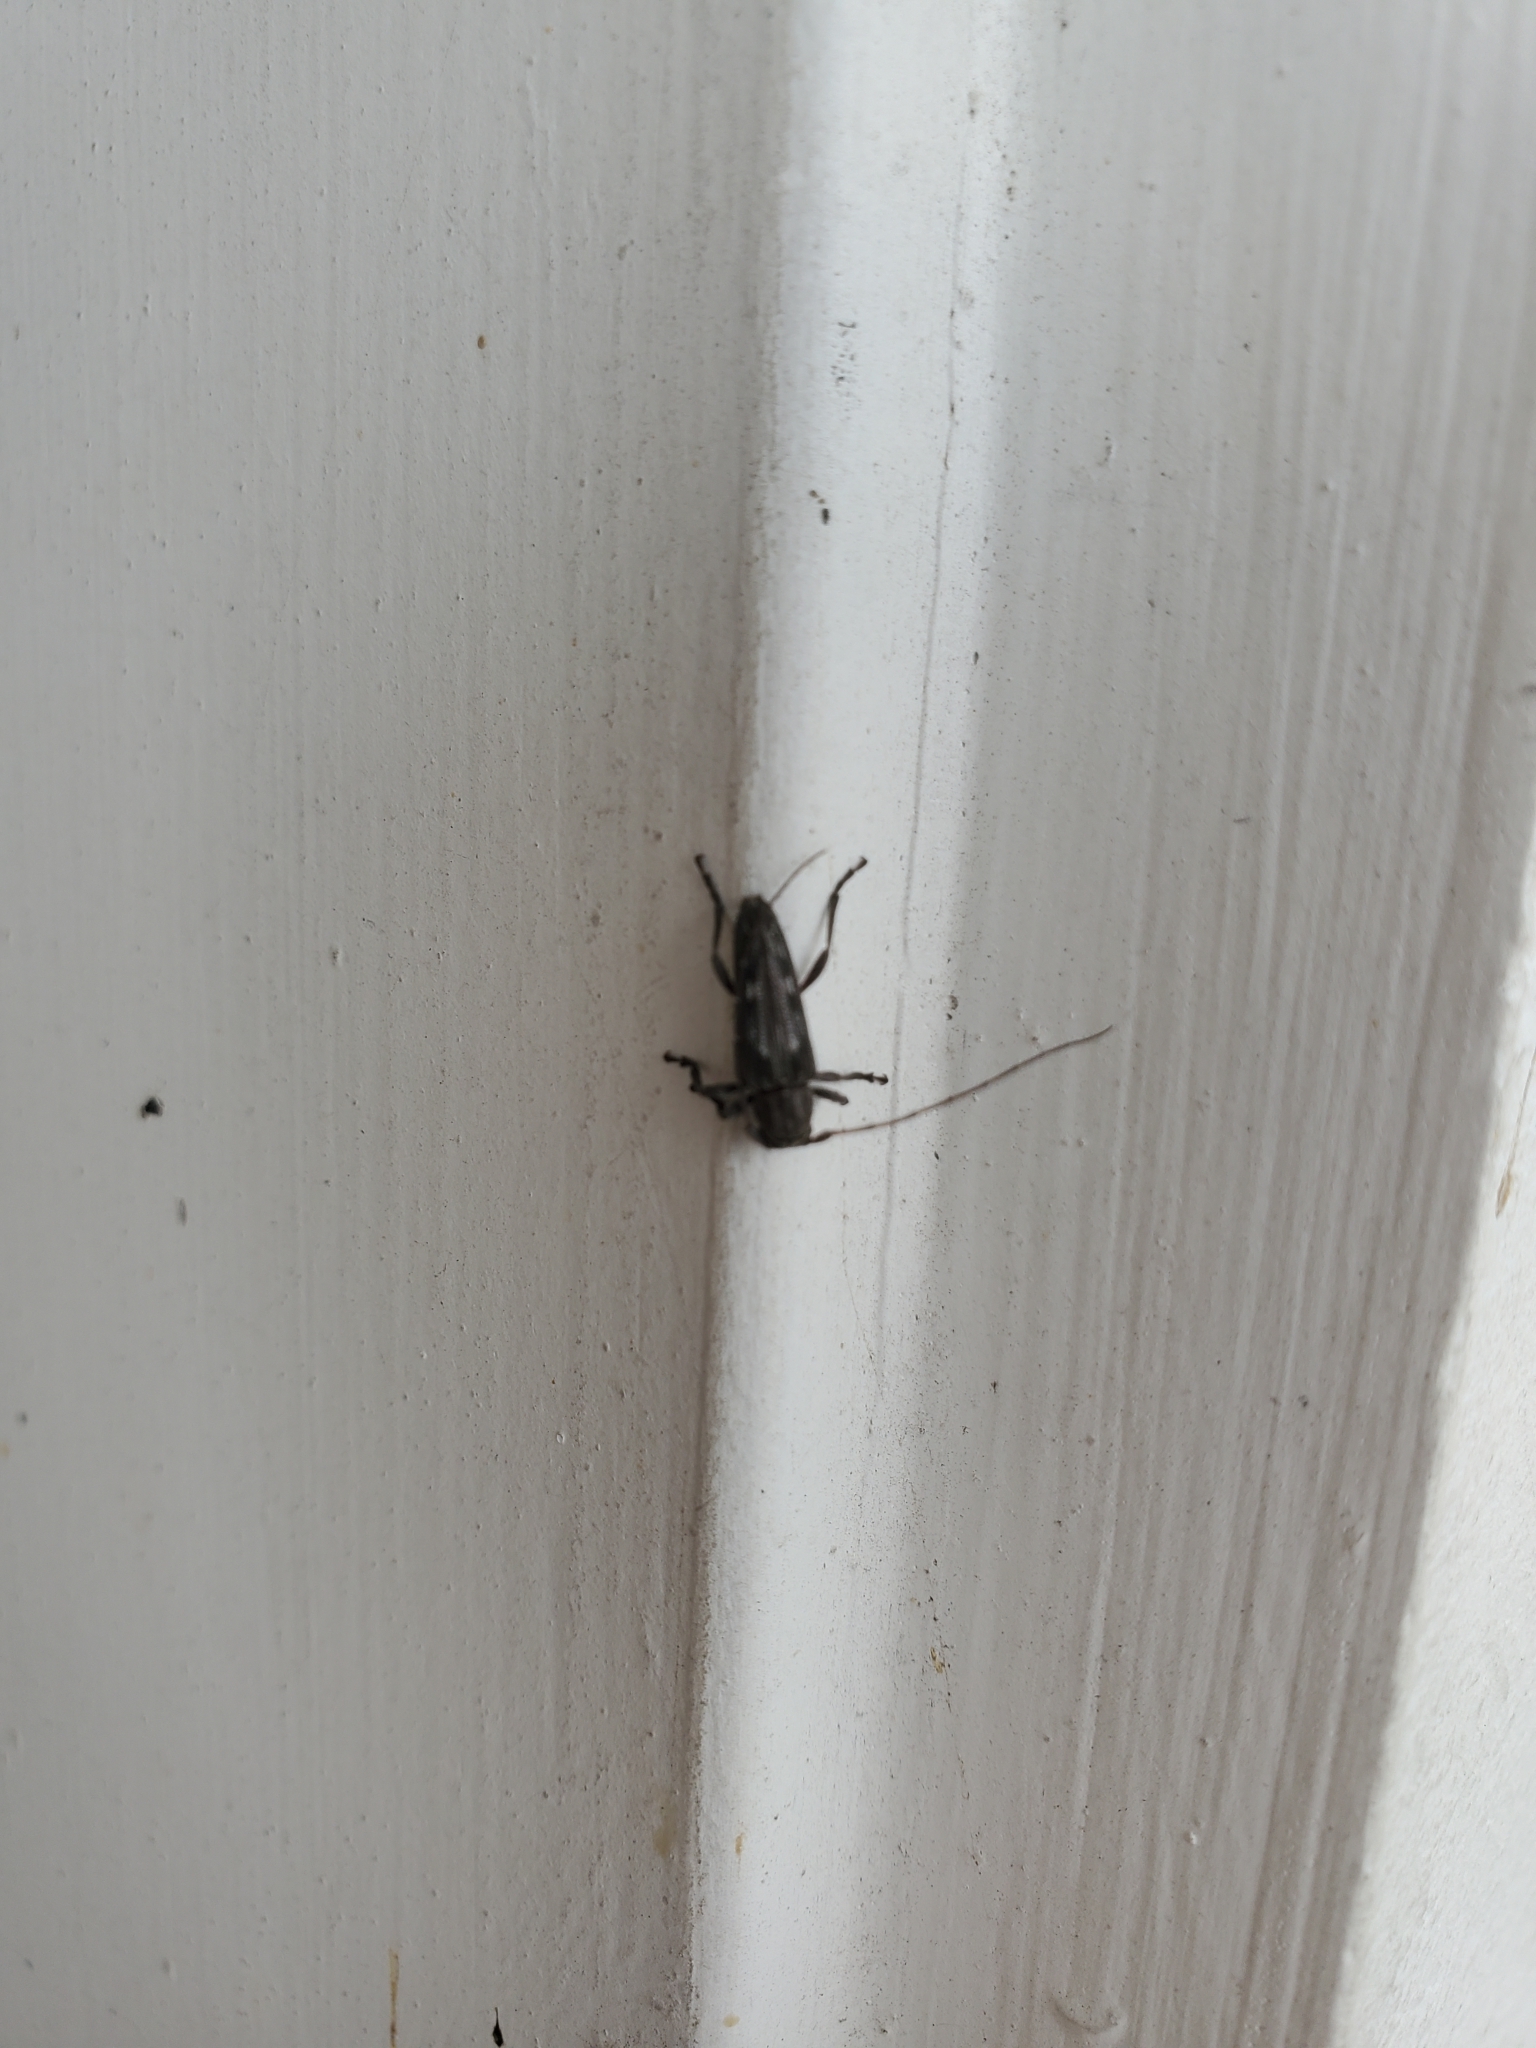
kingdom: Animalia
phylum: Arthropoda
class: Insecta
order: Coleoptera
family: Cerambycidae
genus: Lypsimena
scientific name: Lypsimena fuscata
